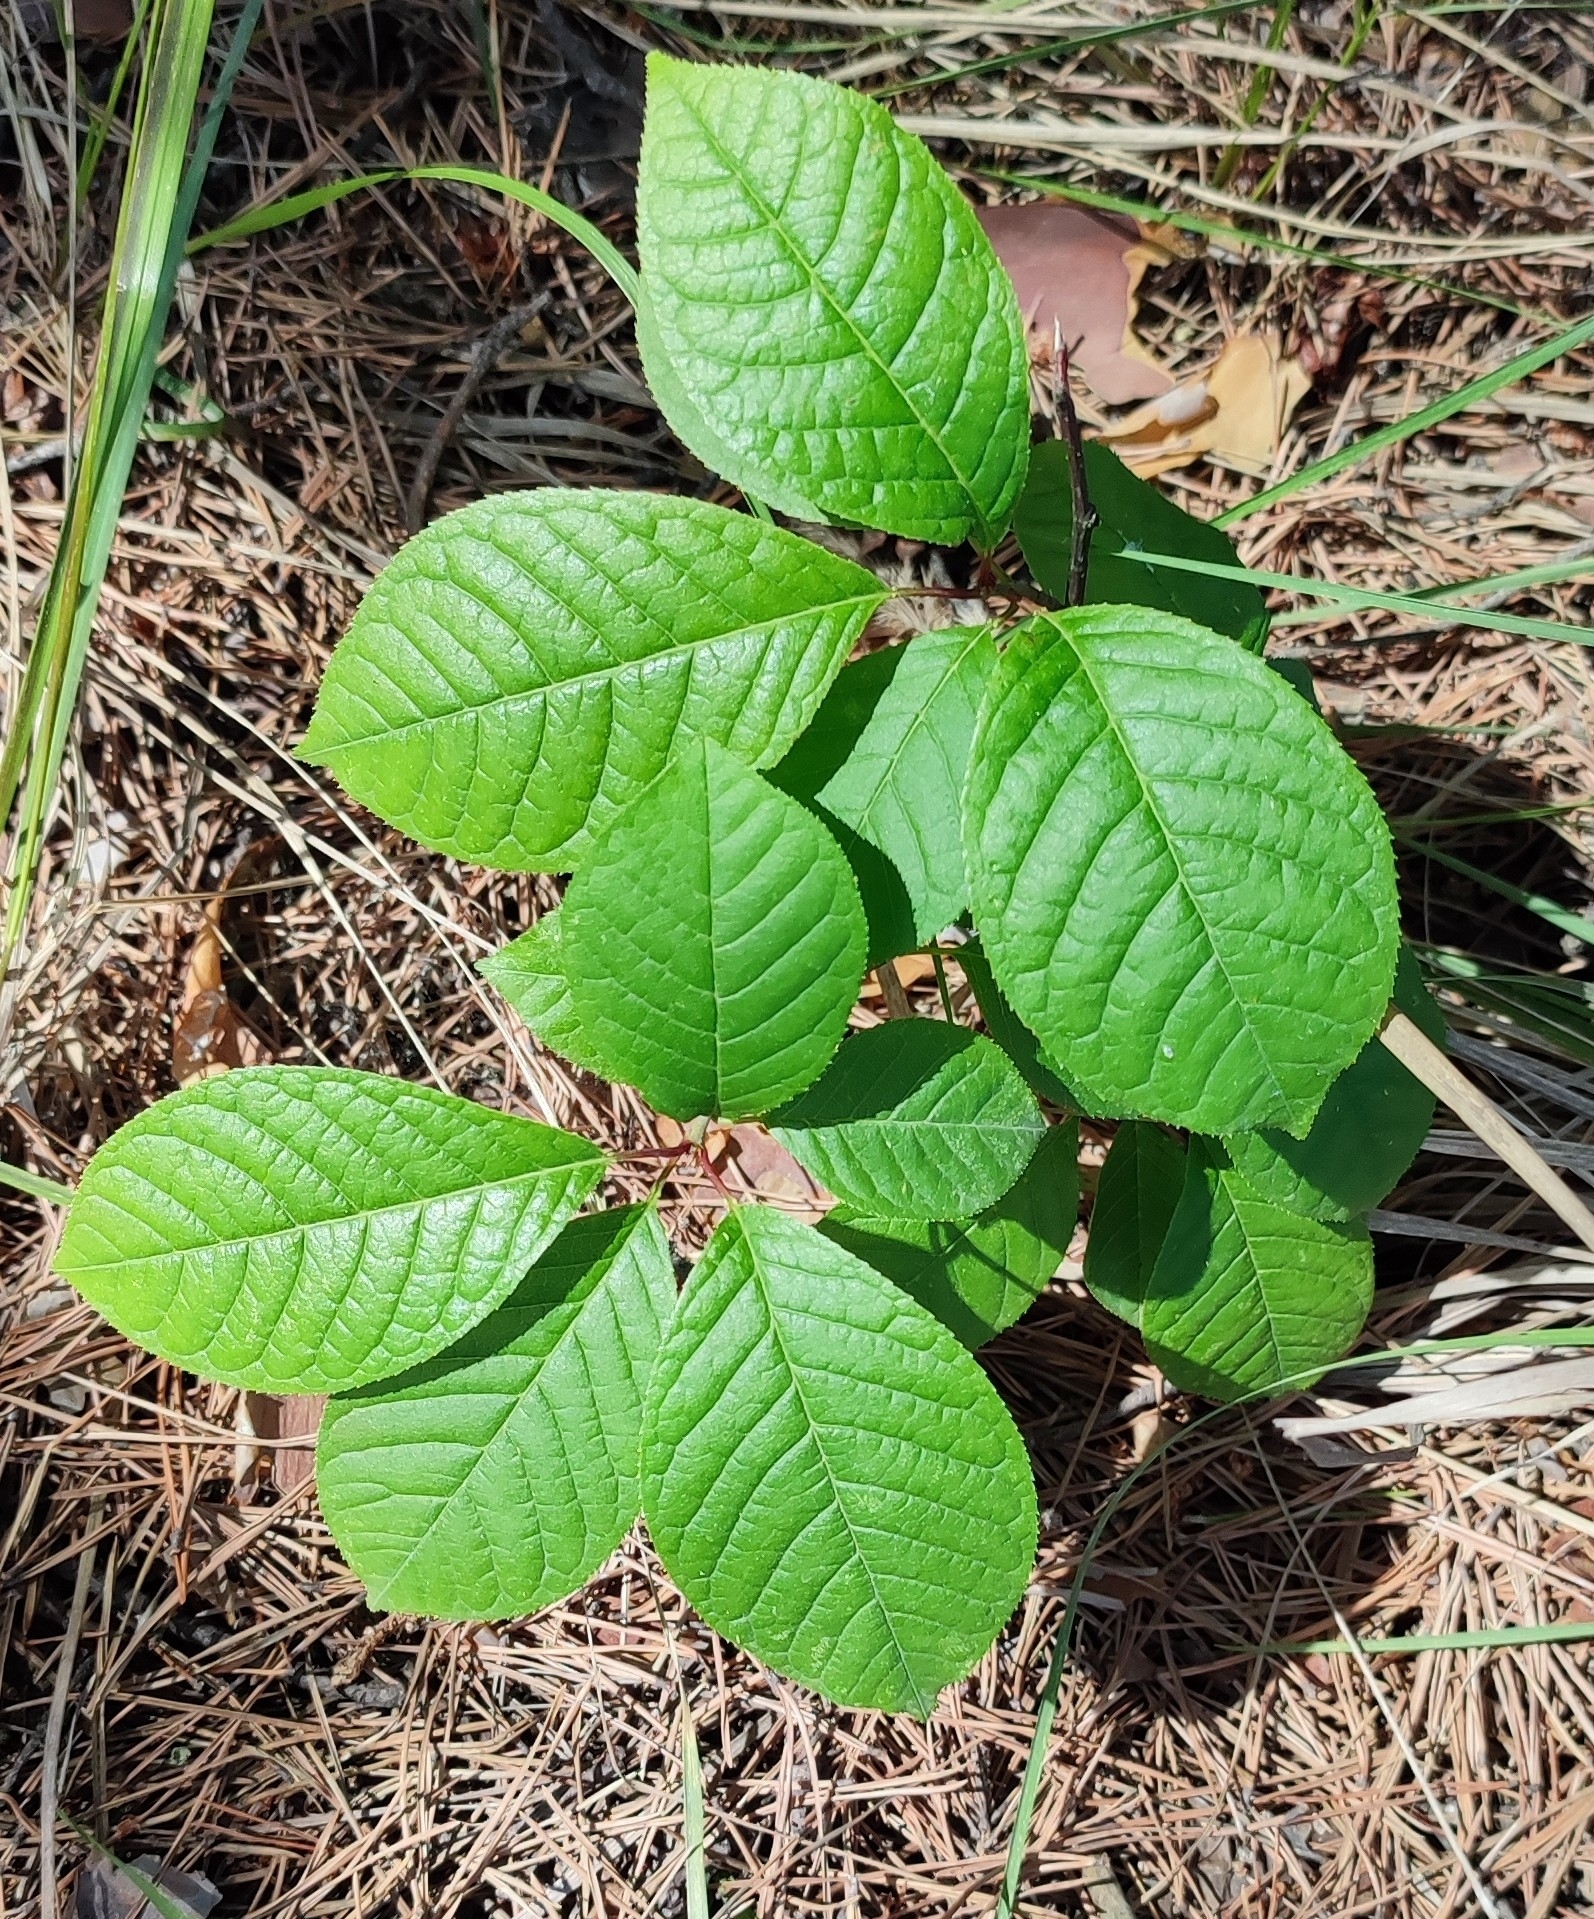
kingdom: Plantae
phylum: Tracheophyta
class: Magnoliopsida
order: Rosales
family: Rosaceae
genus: Prunus
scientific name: Prunus padus
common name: Bird cherry
